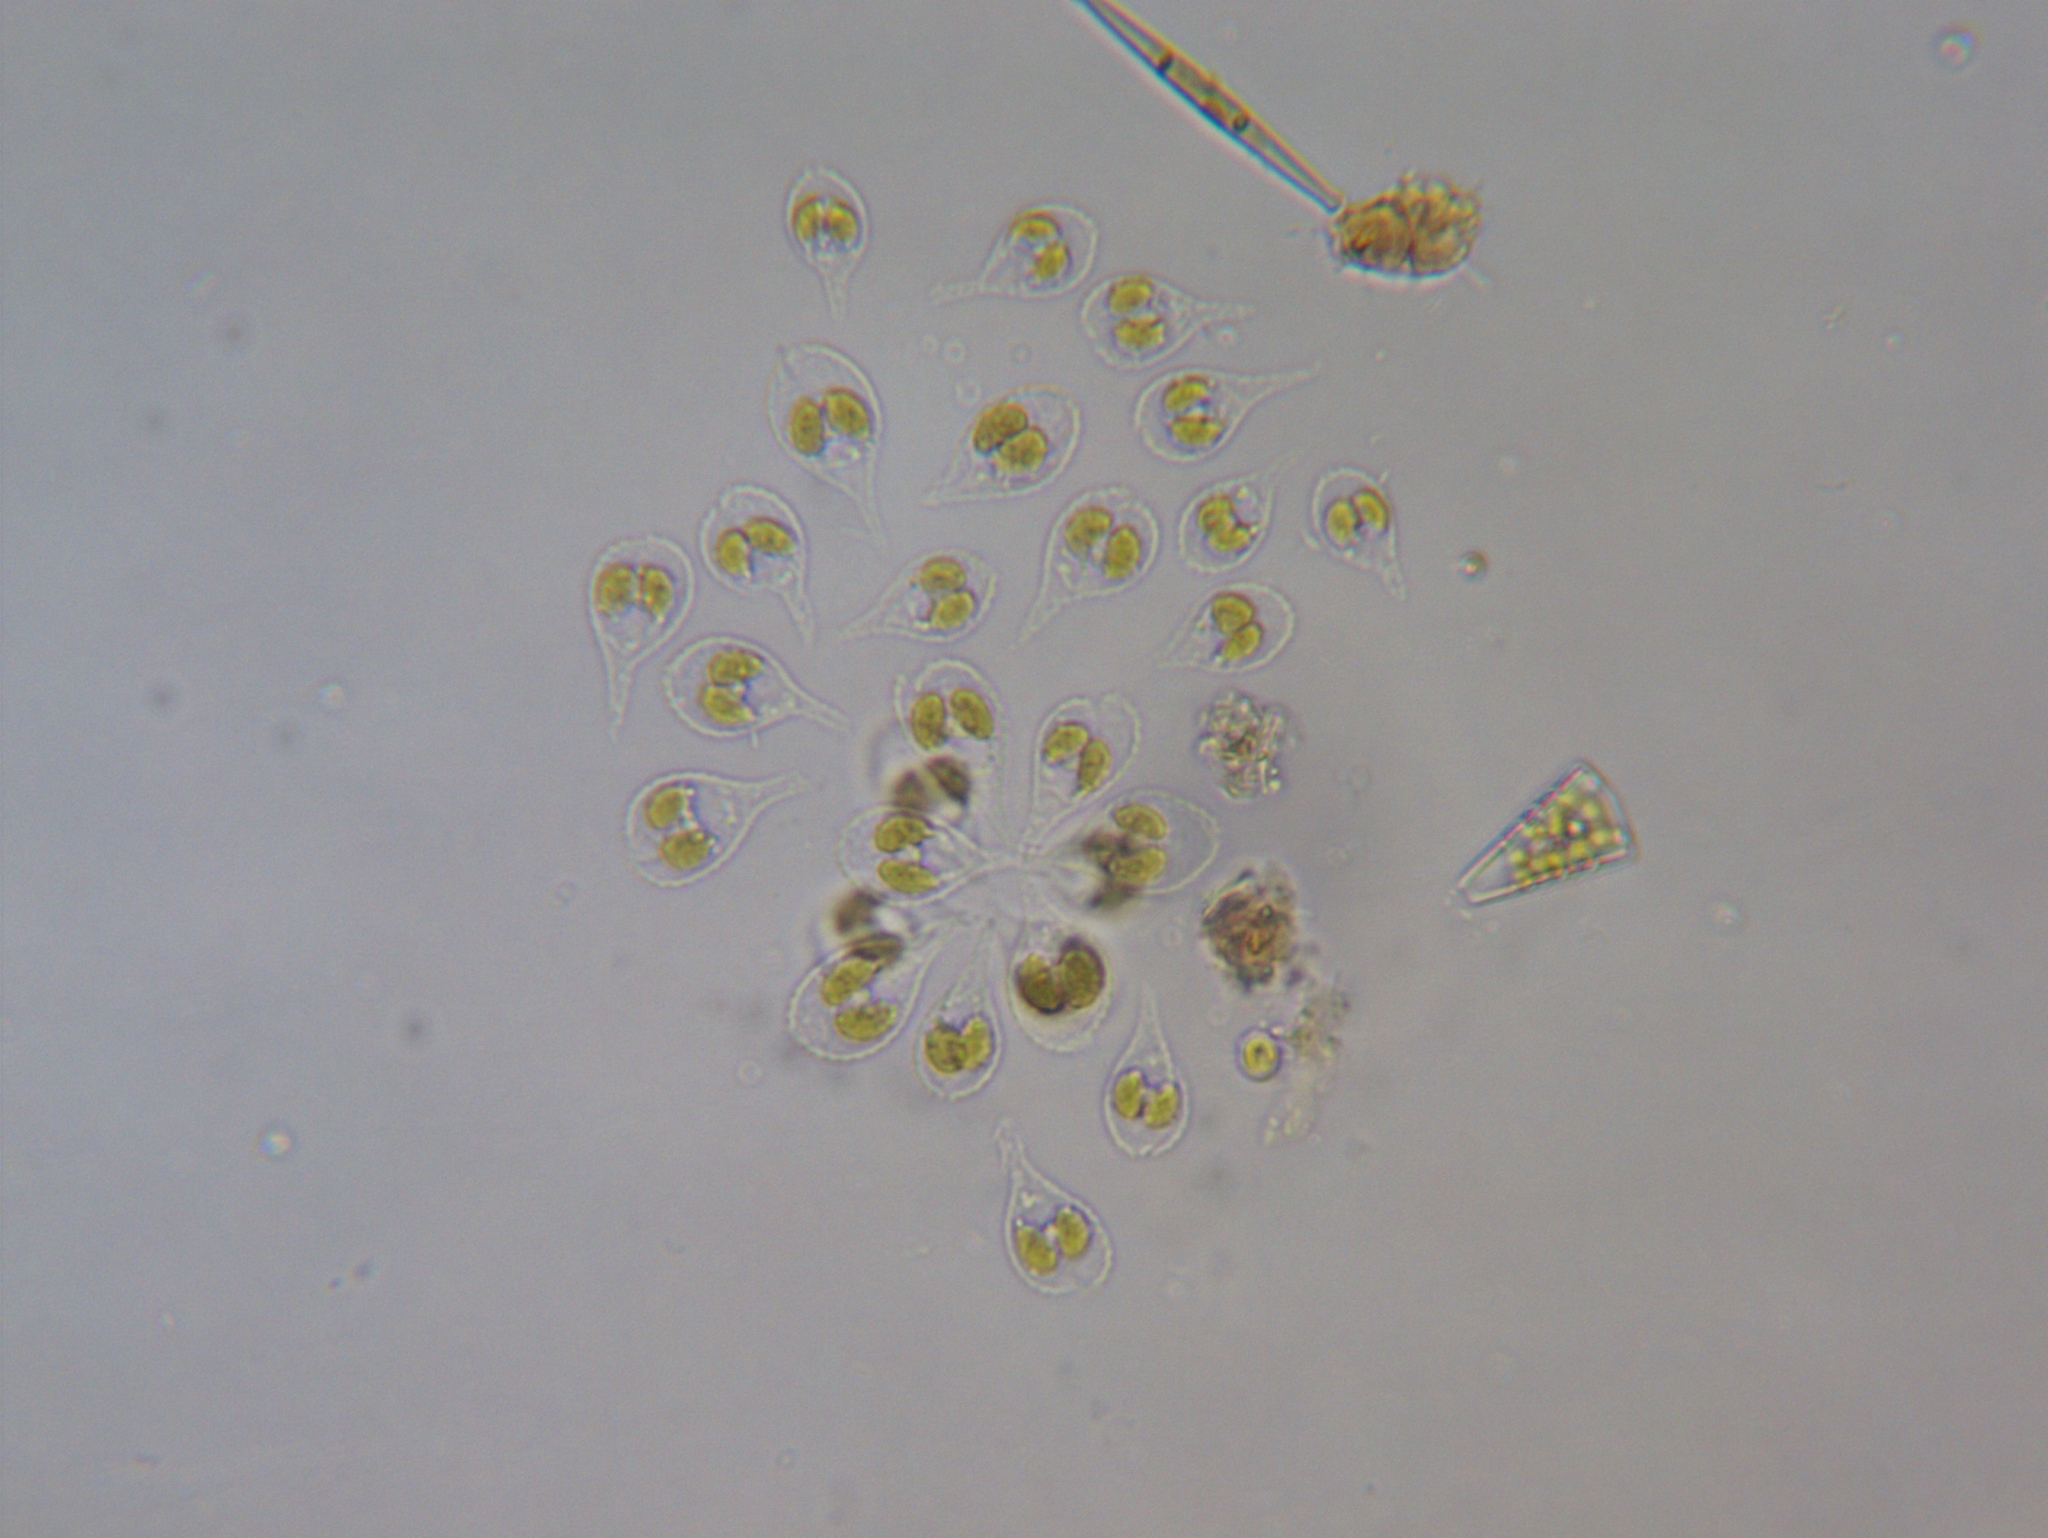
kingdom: Chromista
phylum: Ochrophyta
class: Synurophyceae
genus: Synura
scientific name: Synura
